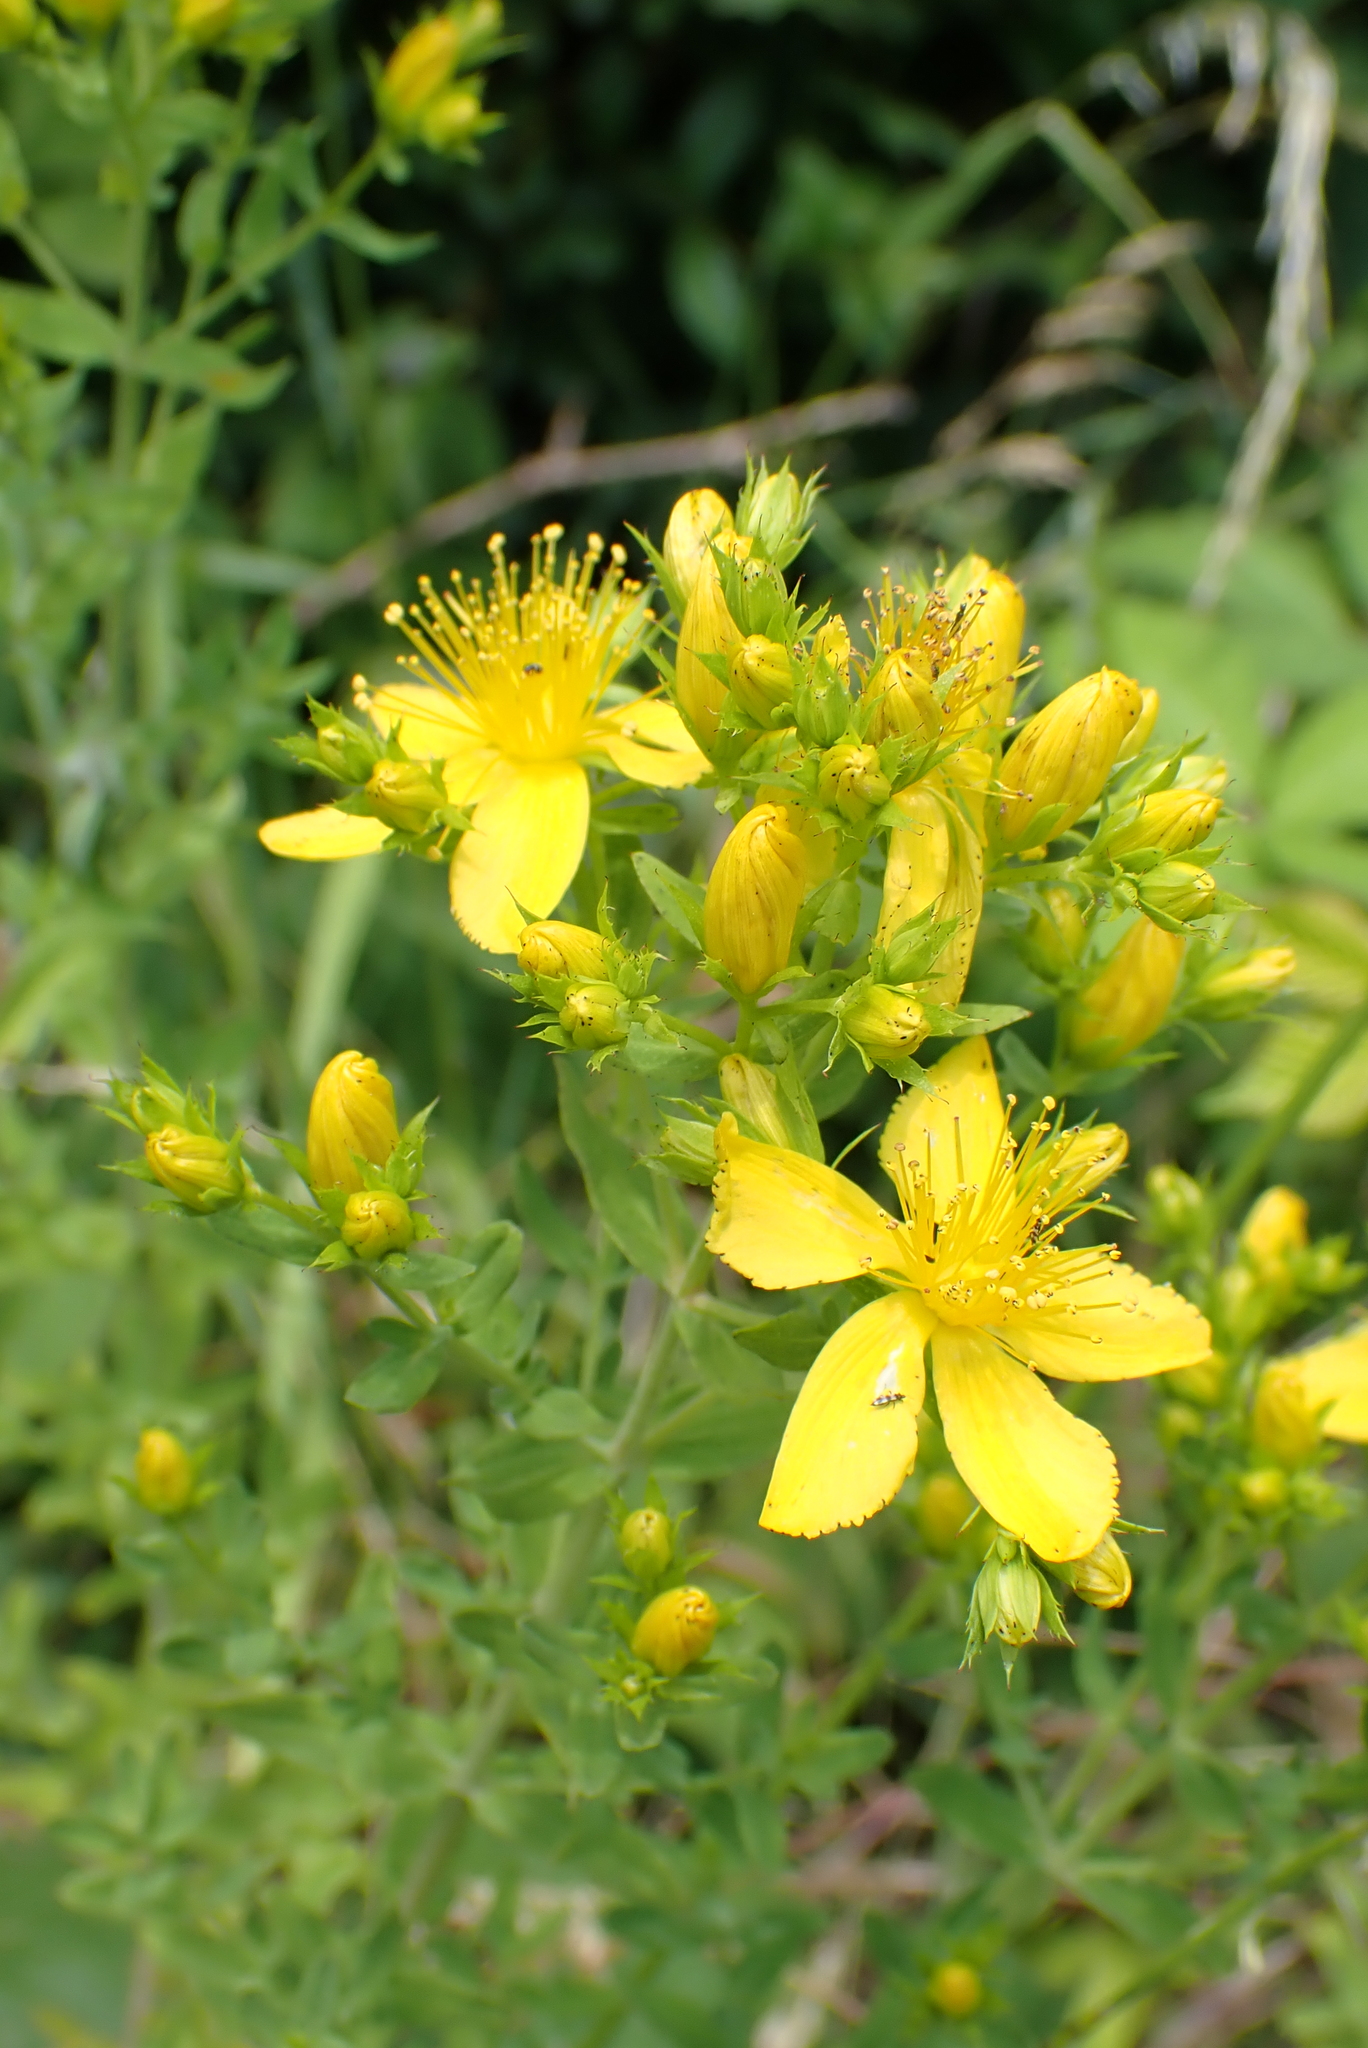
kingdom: Plantae
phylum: Tracheophyta
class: Magnoliopsida
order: Malpighiales
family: Hypericaceae
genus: Hypericum
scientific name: Hypericum perforatum
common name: Common st. johnswort
